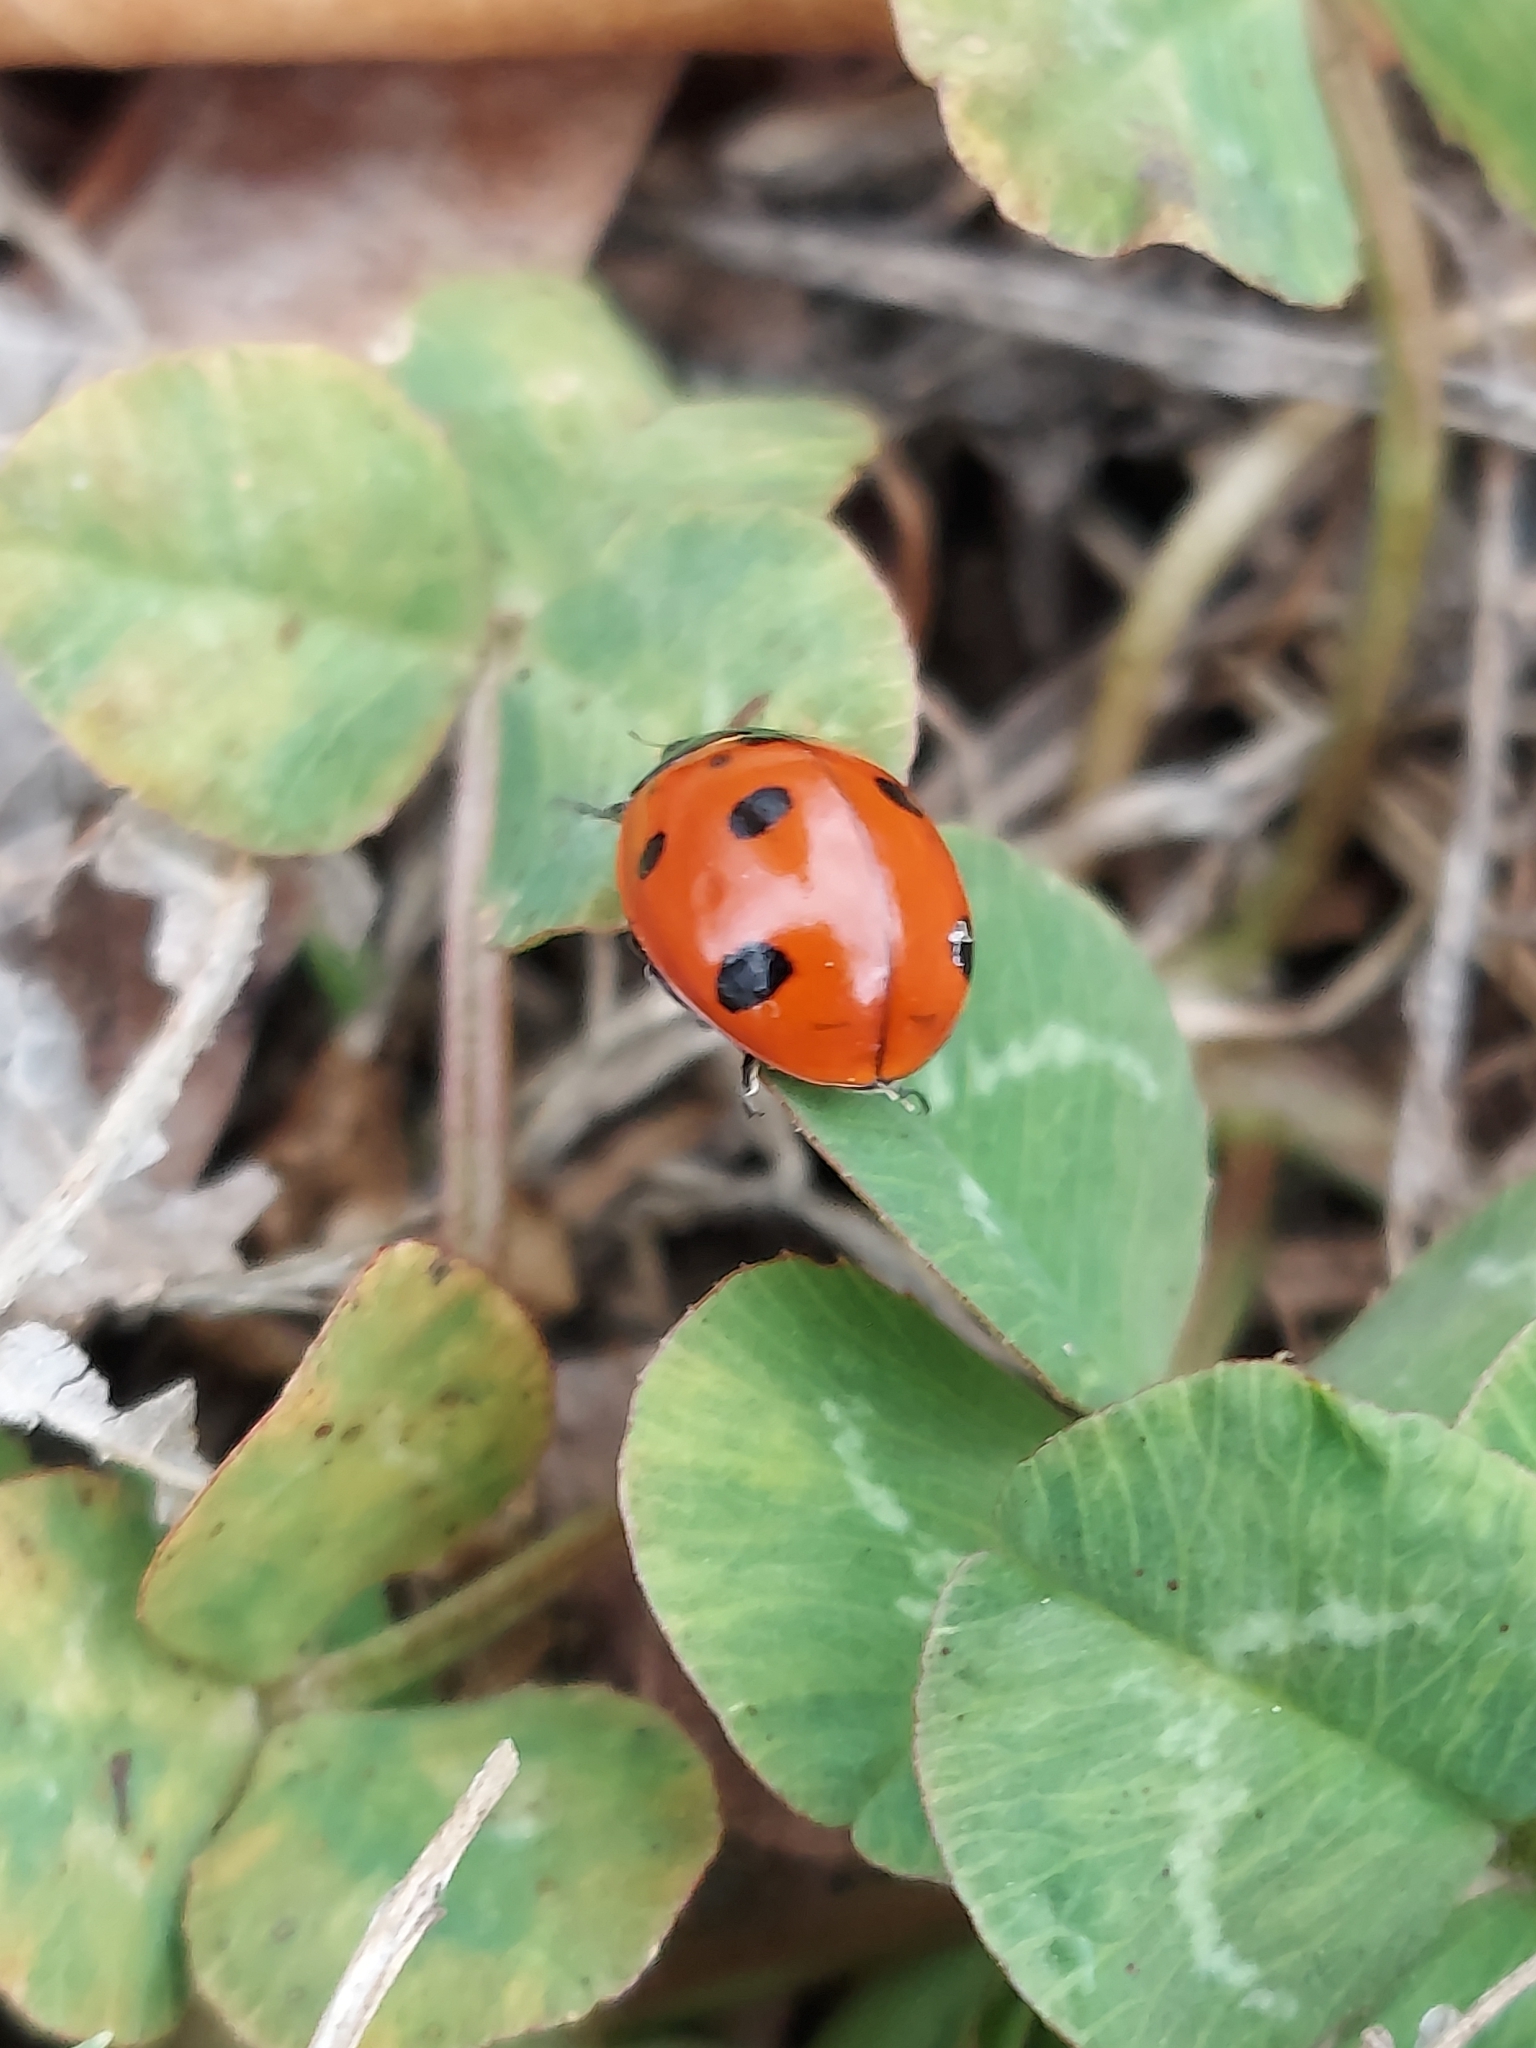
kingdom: Animalia
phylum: Arthropoda
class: Insecta
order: Coleoptera
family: Coccinellidae
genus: Coccinella
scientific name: Coccinella septempunctata
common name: Sevenspotted lady beetle
